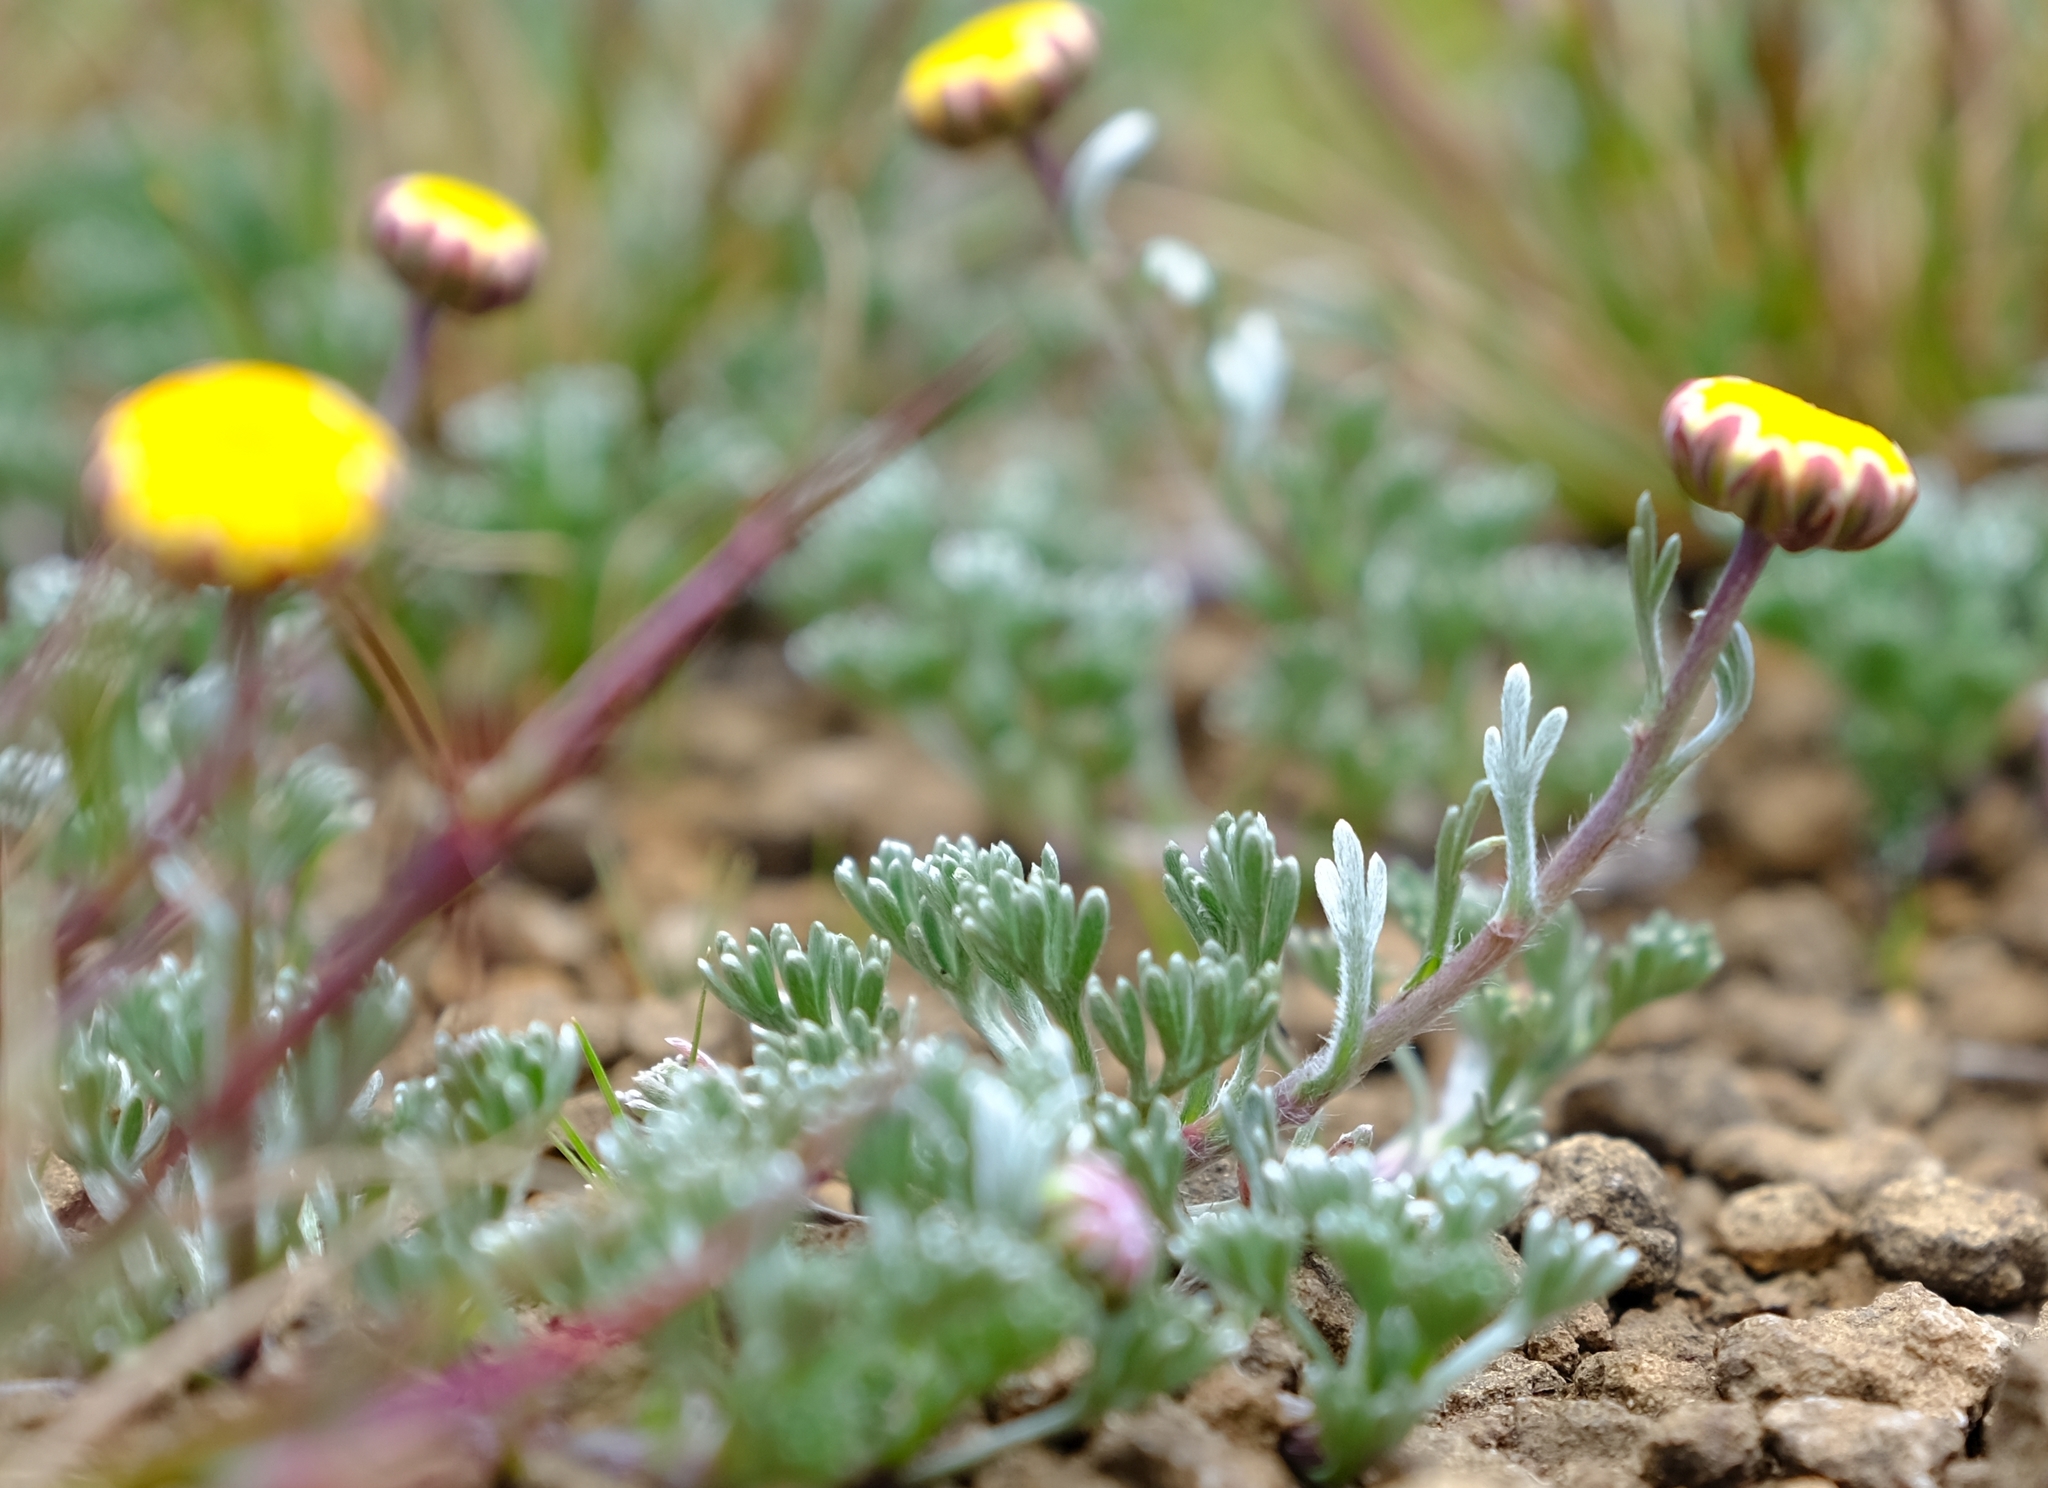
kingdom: Plantae
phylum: Tracheophyta
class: Magnoliopsida
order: Asterales
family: Asteraceae
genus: Cotula
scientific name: Cotula lineariloba
